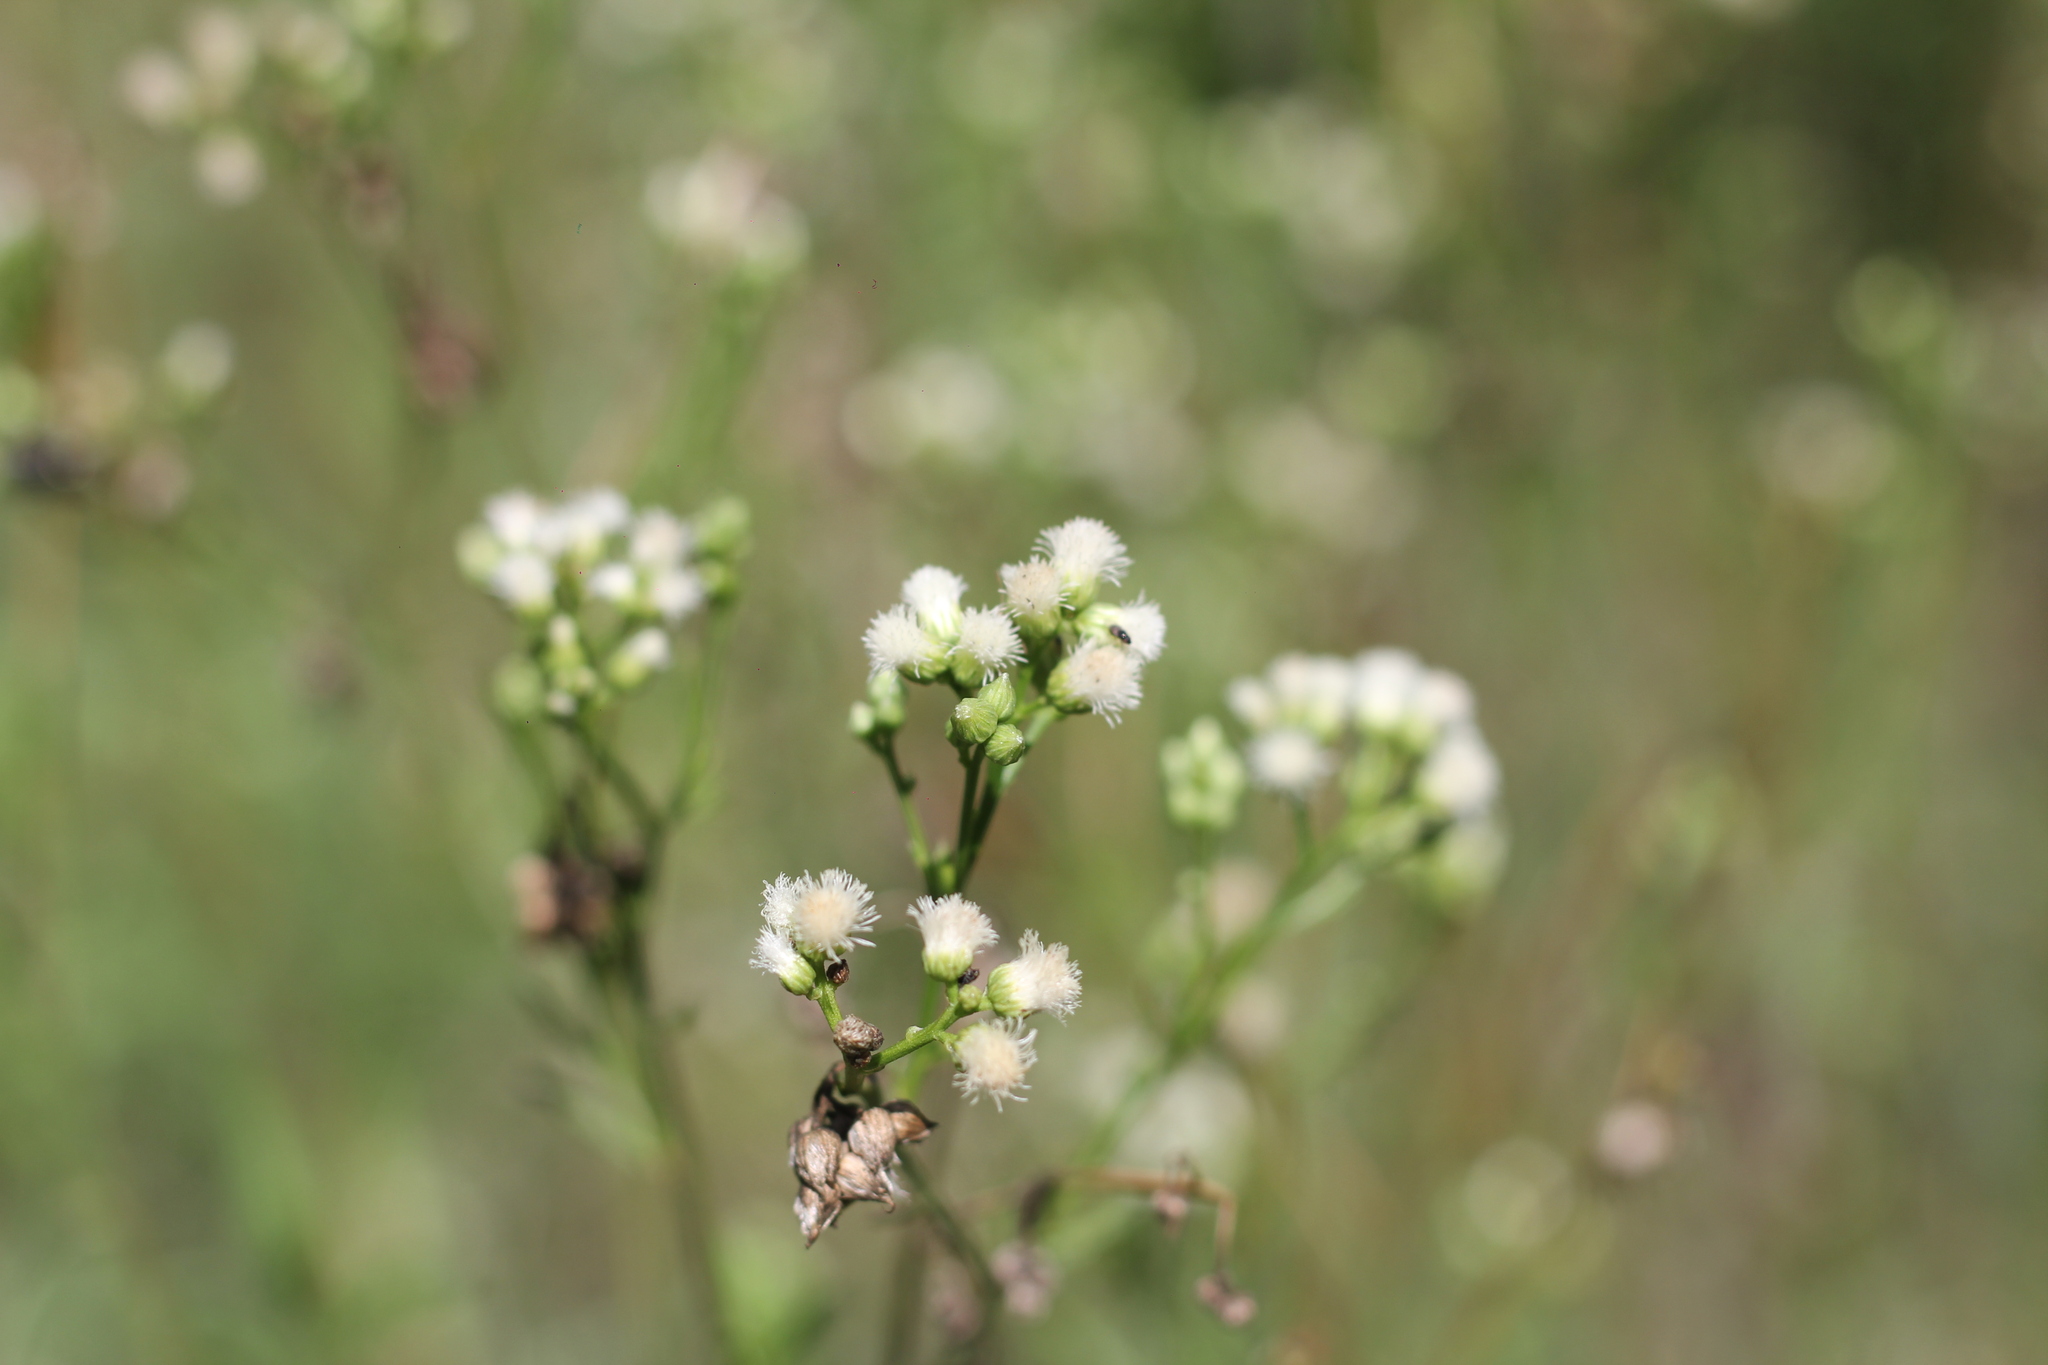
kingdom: Plantae
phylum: Tracheophyta
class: Magnoliopsida
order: Asterales
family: Asteraceae
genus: Baccharis
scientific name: Baccharis glutinosa
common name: Saltmarsh baccharis
